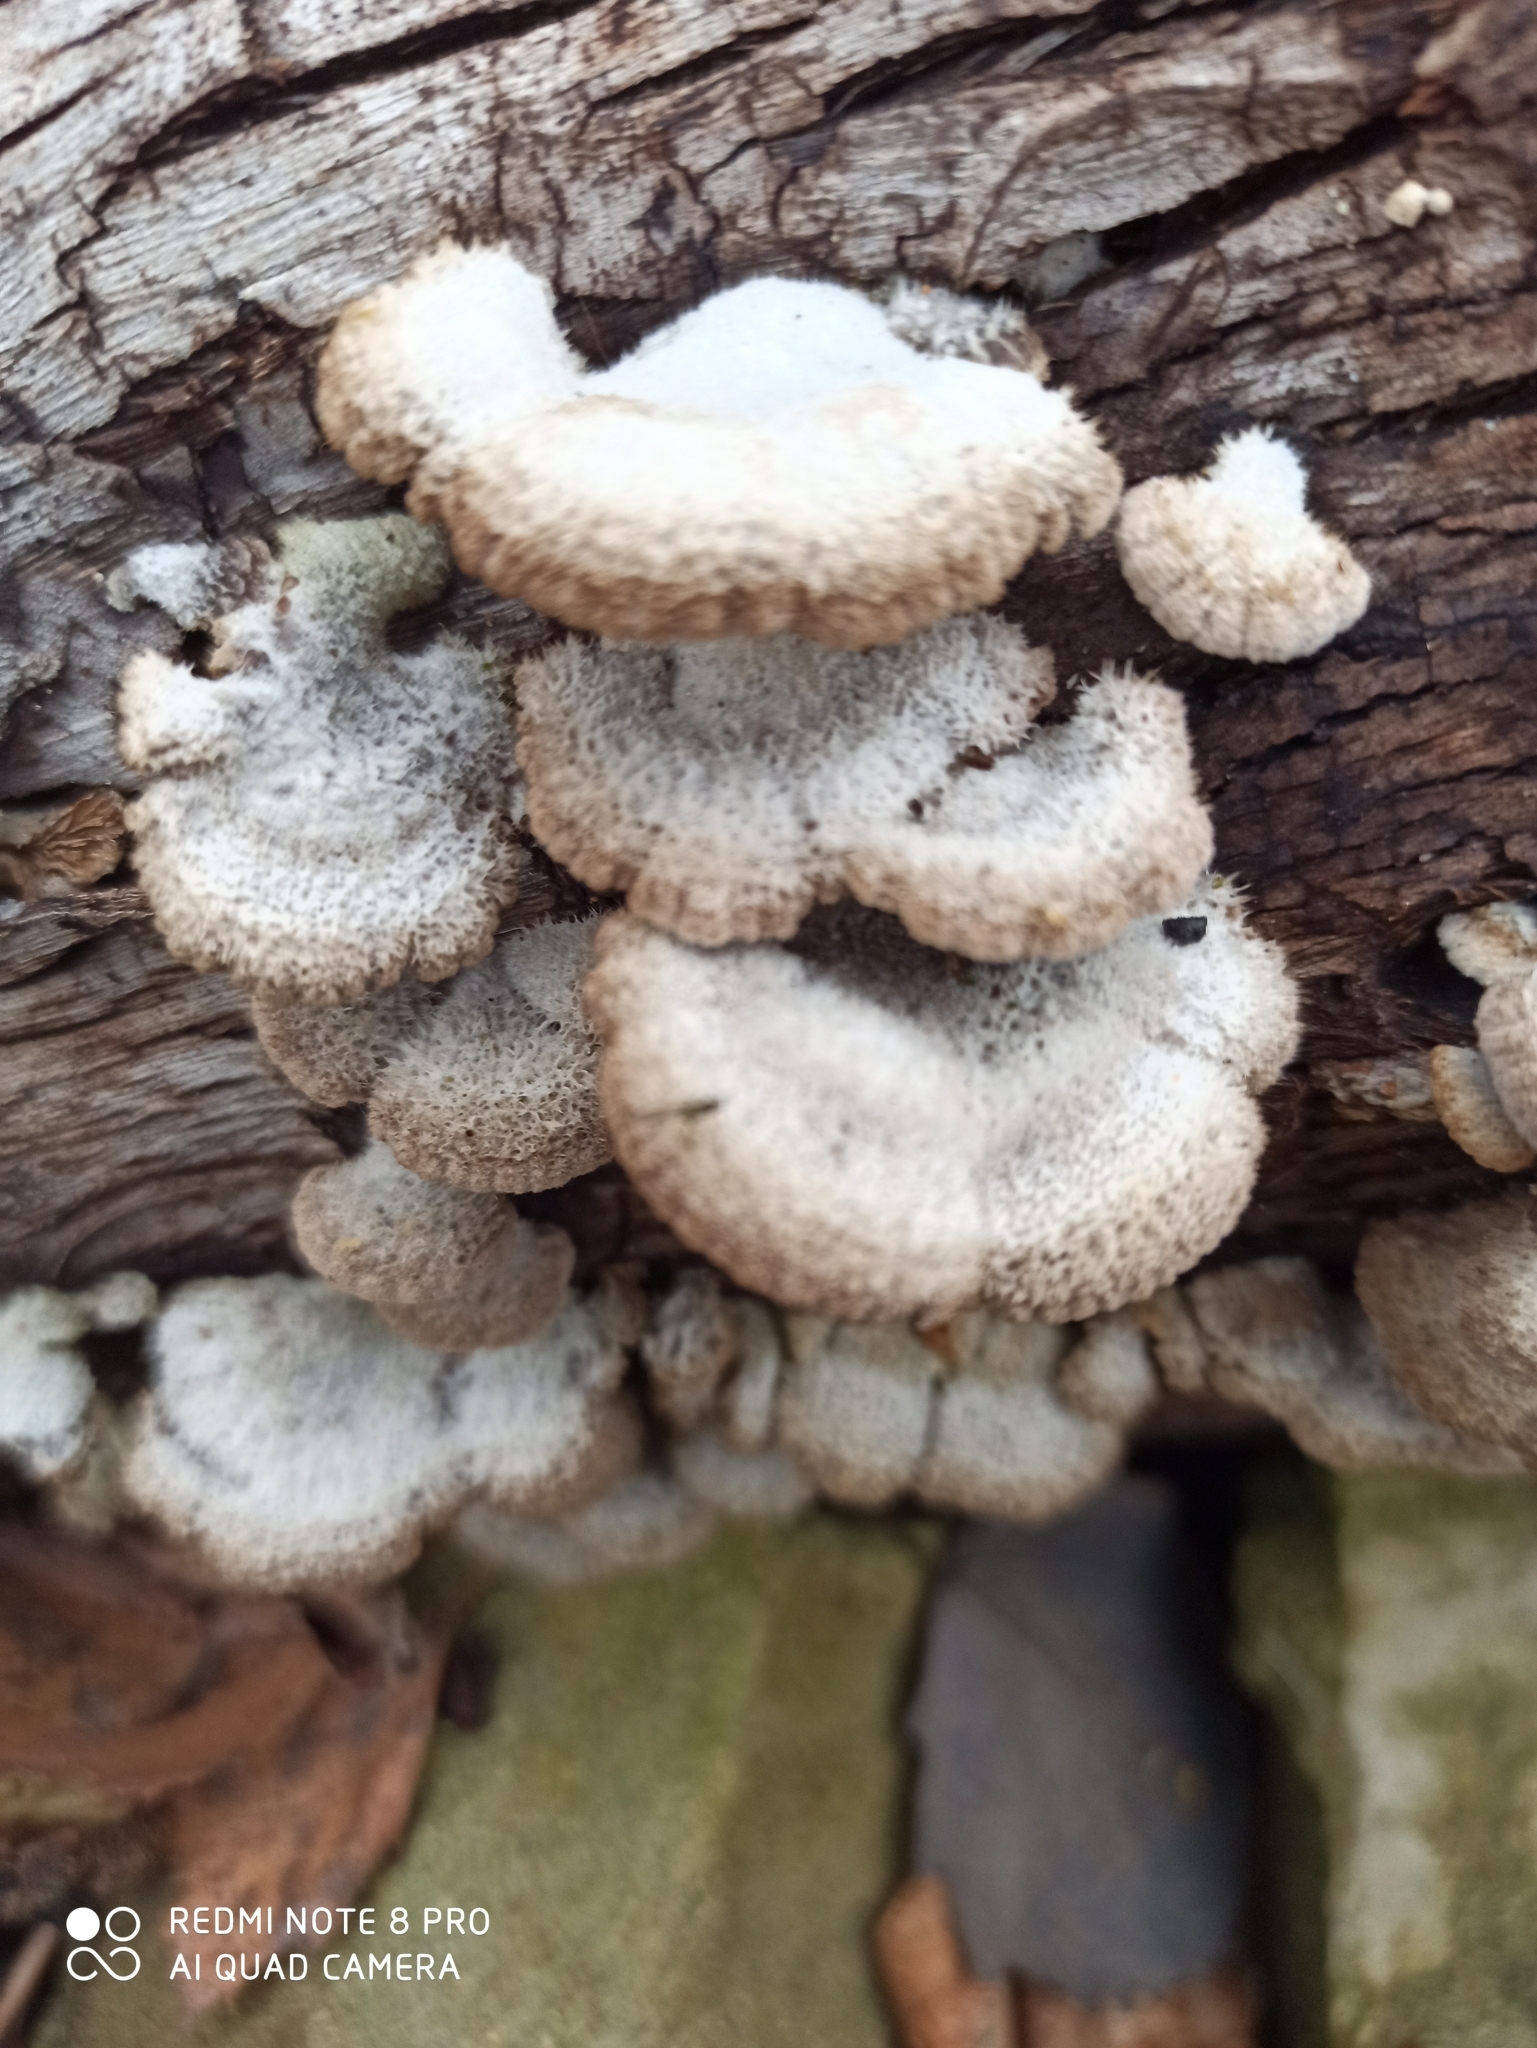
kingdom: Fungi
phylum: Basidiomycota
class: Agaricomycetes
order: Agaricales
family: Schizophyllaceae
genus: Schizophyllum
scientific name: Schizophyllum commune
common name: Common porecrust
